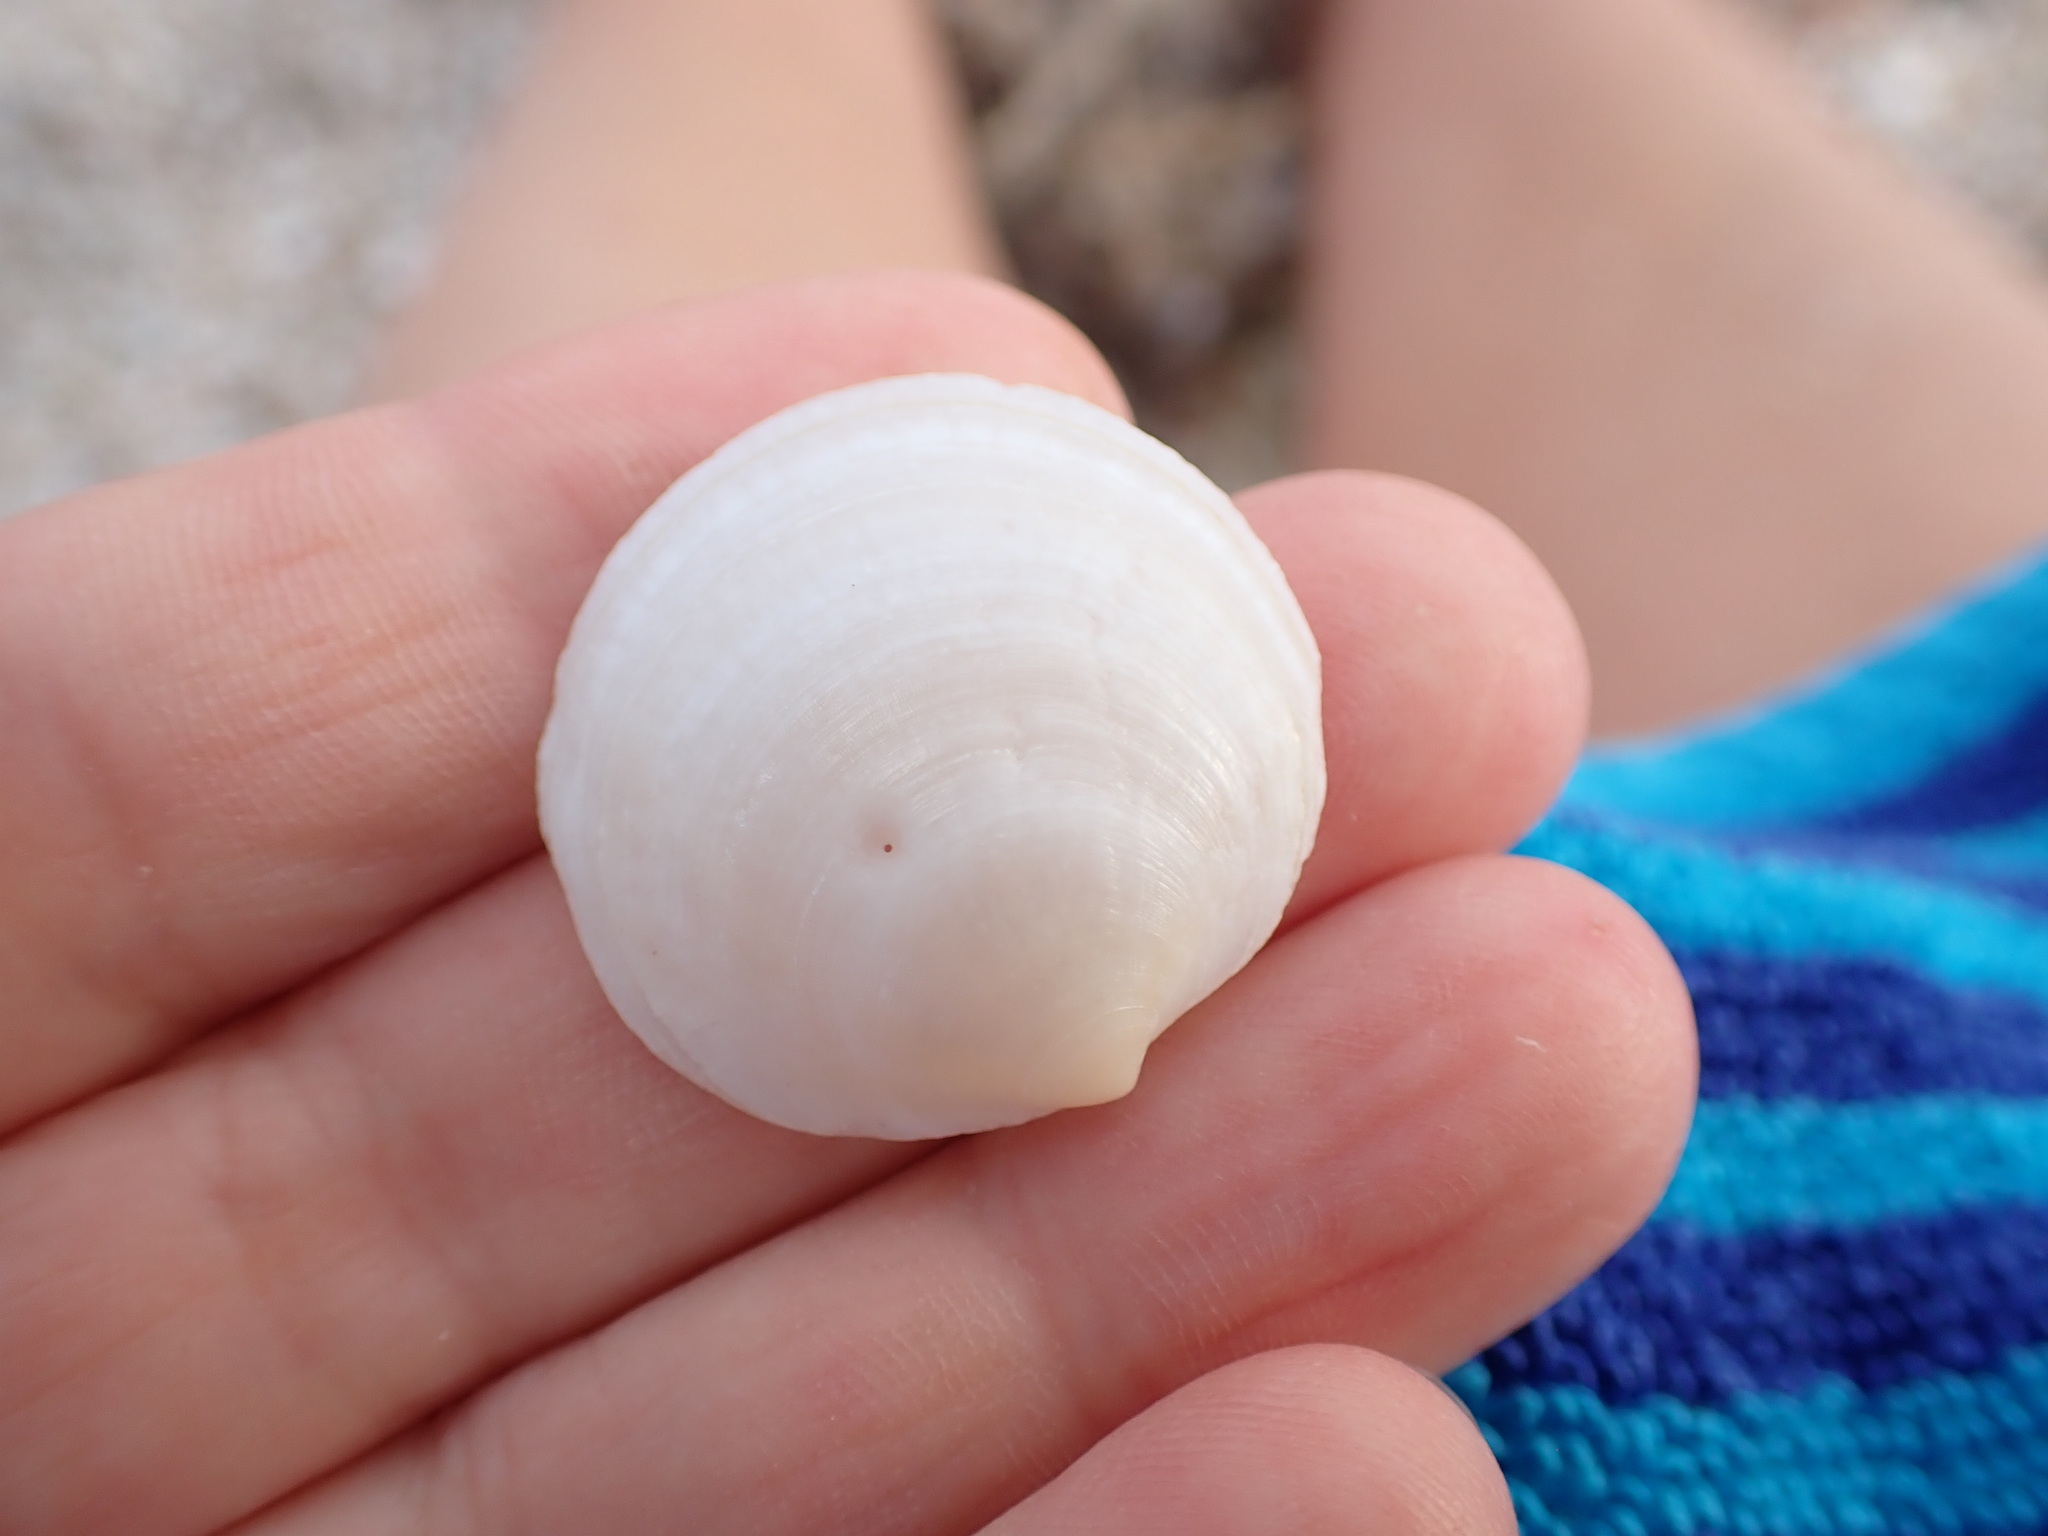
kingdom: Animalia
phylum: Mollusca
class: Bivalvia
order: Lucinida
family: Lucinidae
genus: Loripes
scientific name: Loripes orbiculatus
